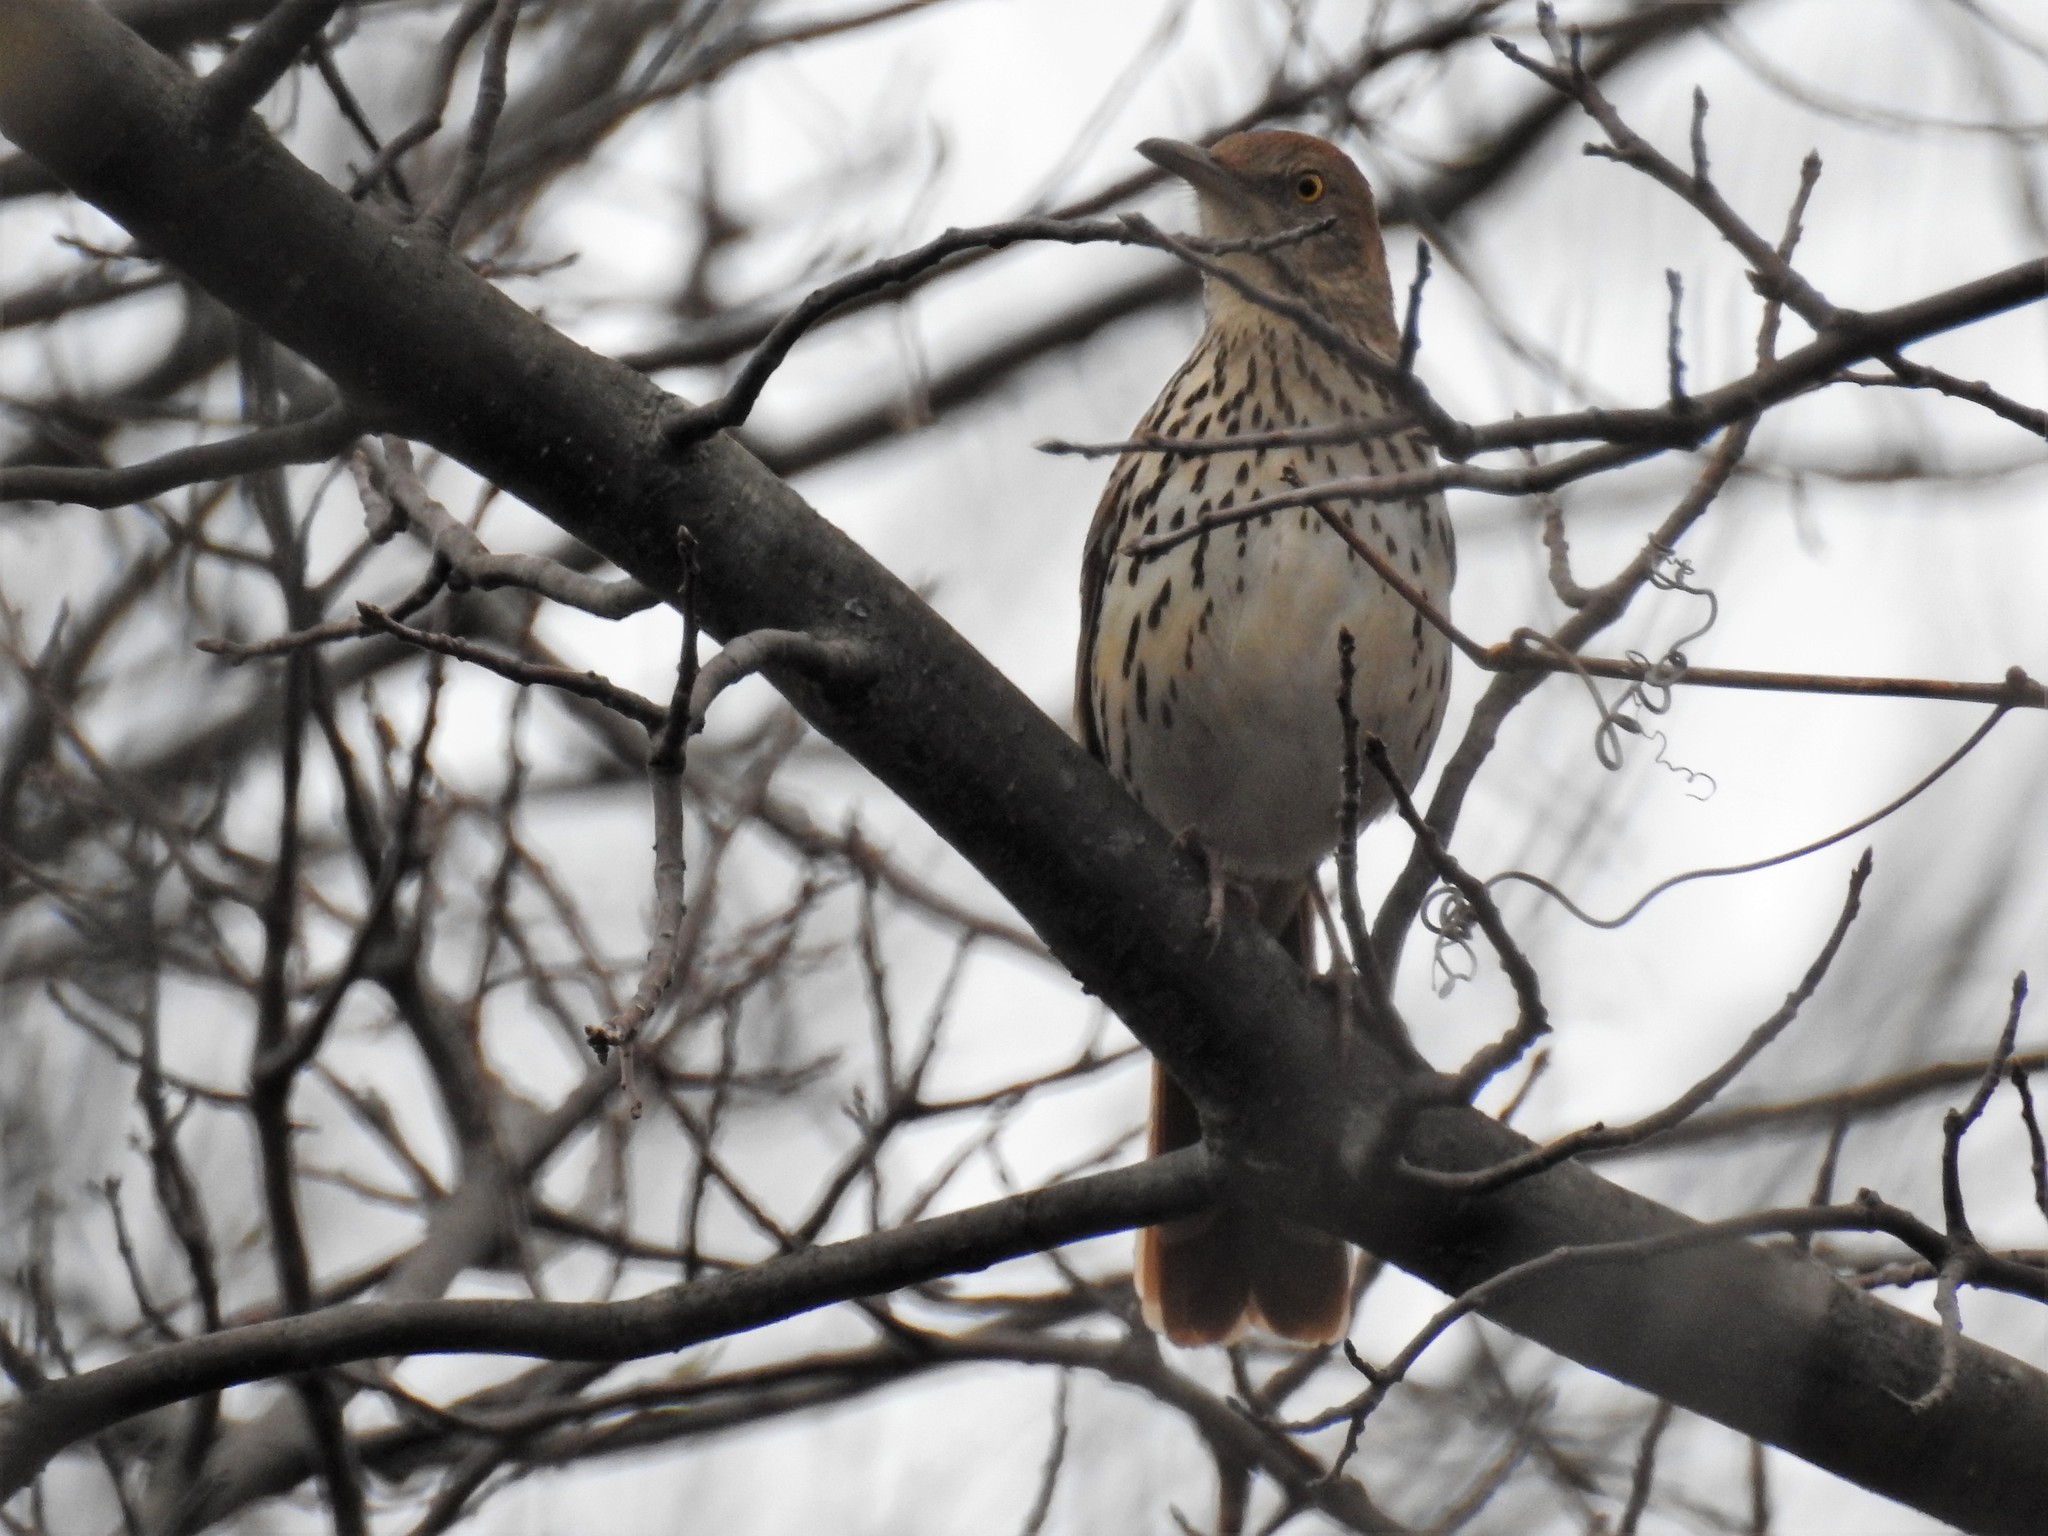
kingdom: Animalia
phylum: Chordata
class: Aves
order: Passeriformes
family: Mimidae
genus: Toxostoma
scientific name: Toxostoma rufum
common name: Brown thrasher
